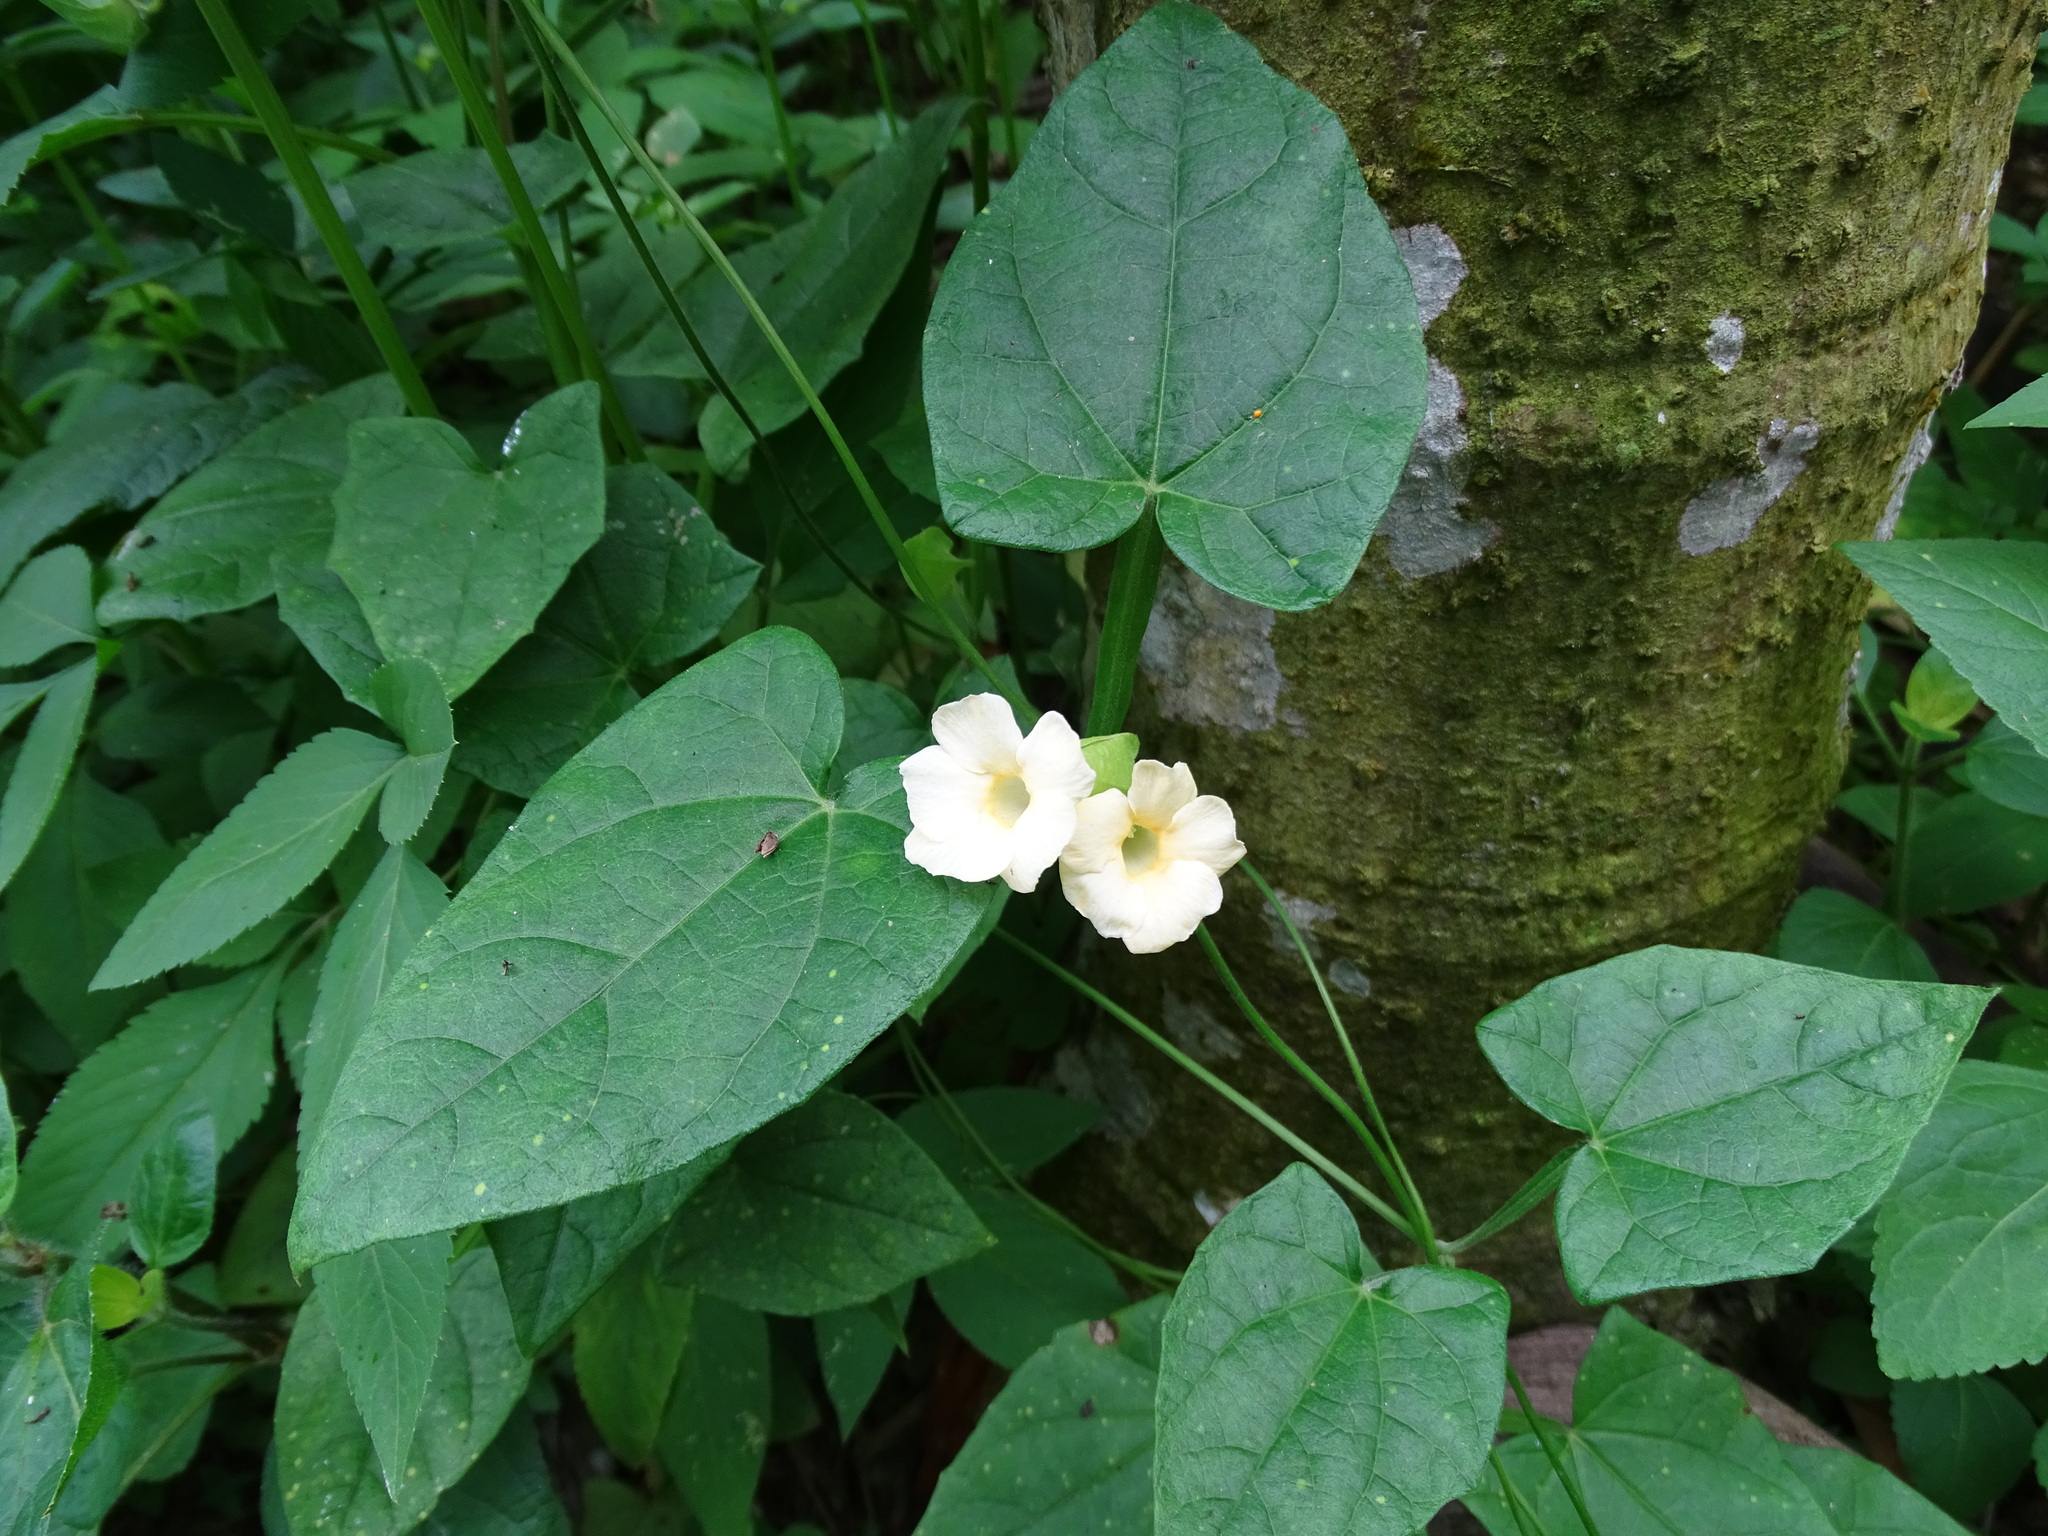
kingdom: Plantae
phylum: Tracheophyta
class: Magnoliopsida
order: Lamiales
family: Acanthaceae
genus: Thunbergia
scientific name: Thunbergia alata
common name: Blackeyed susan vine
